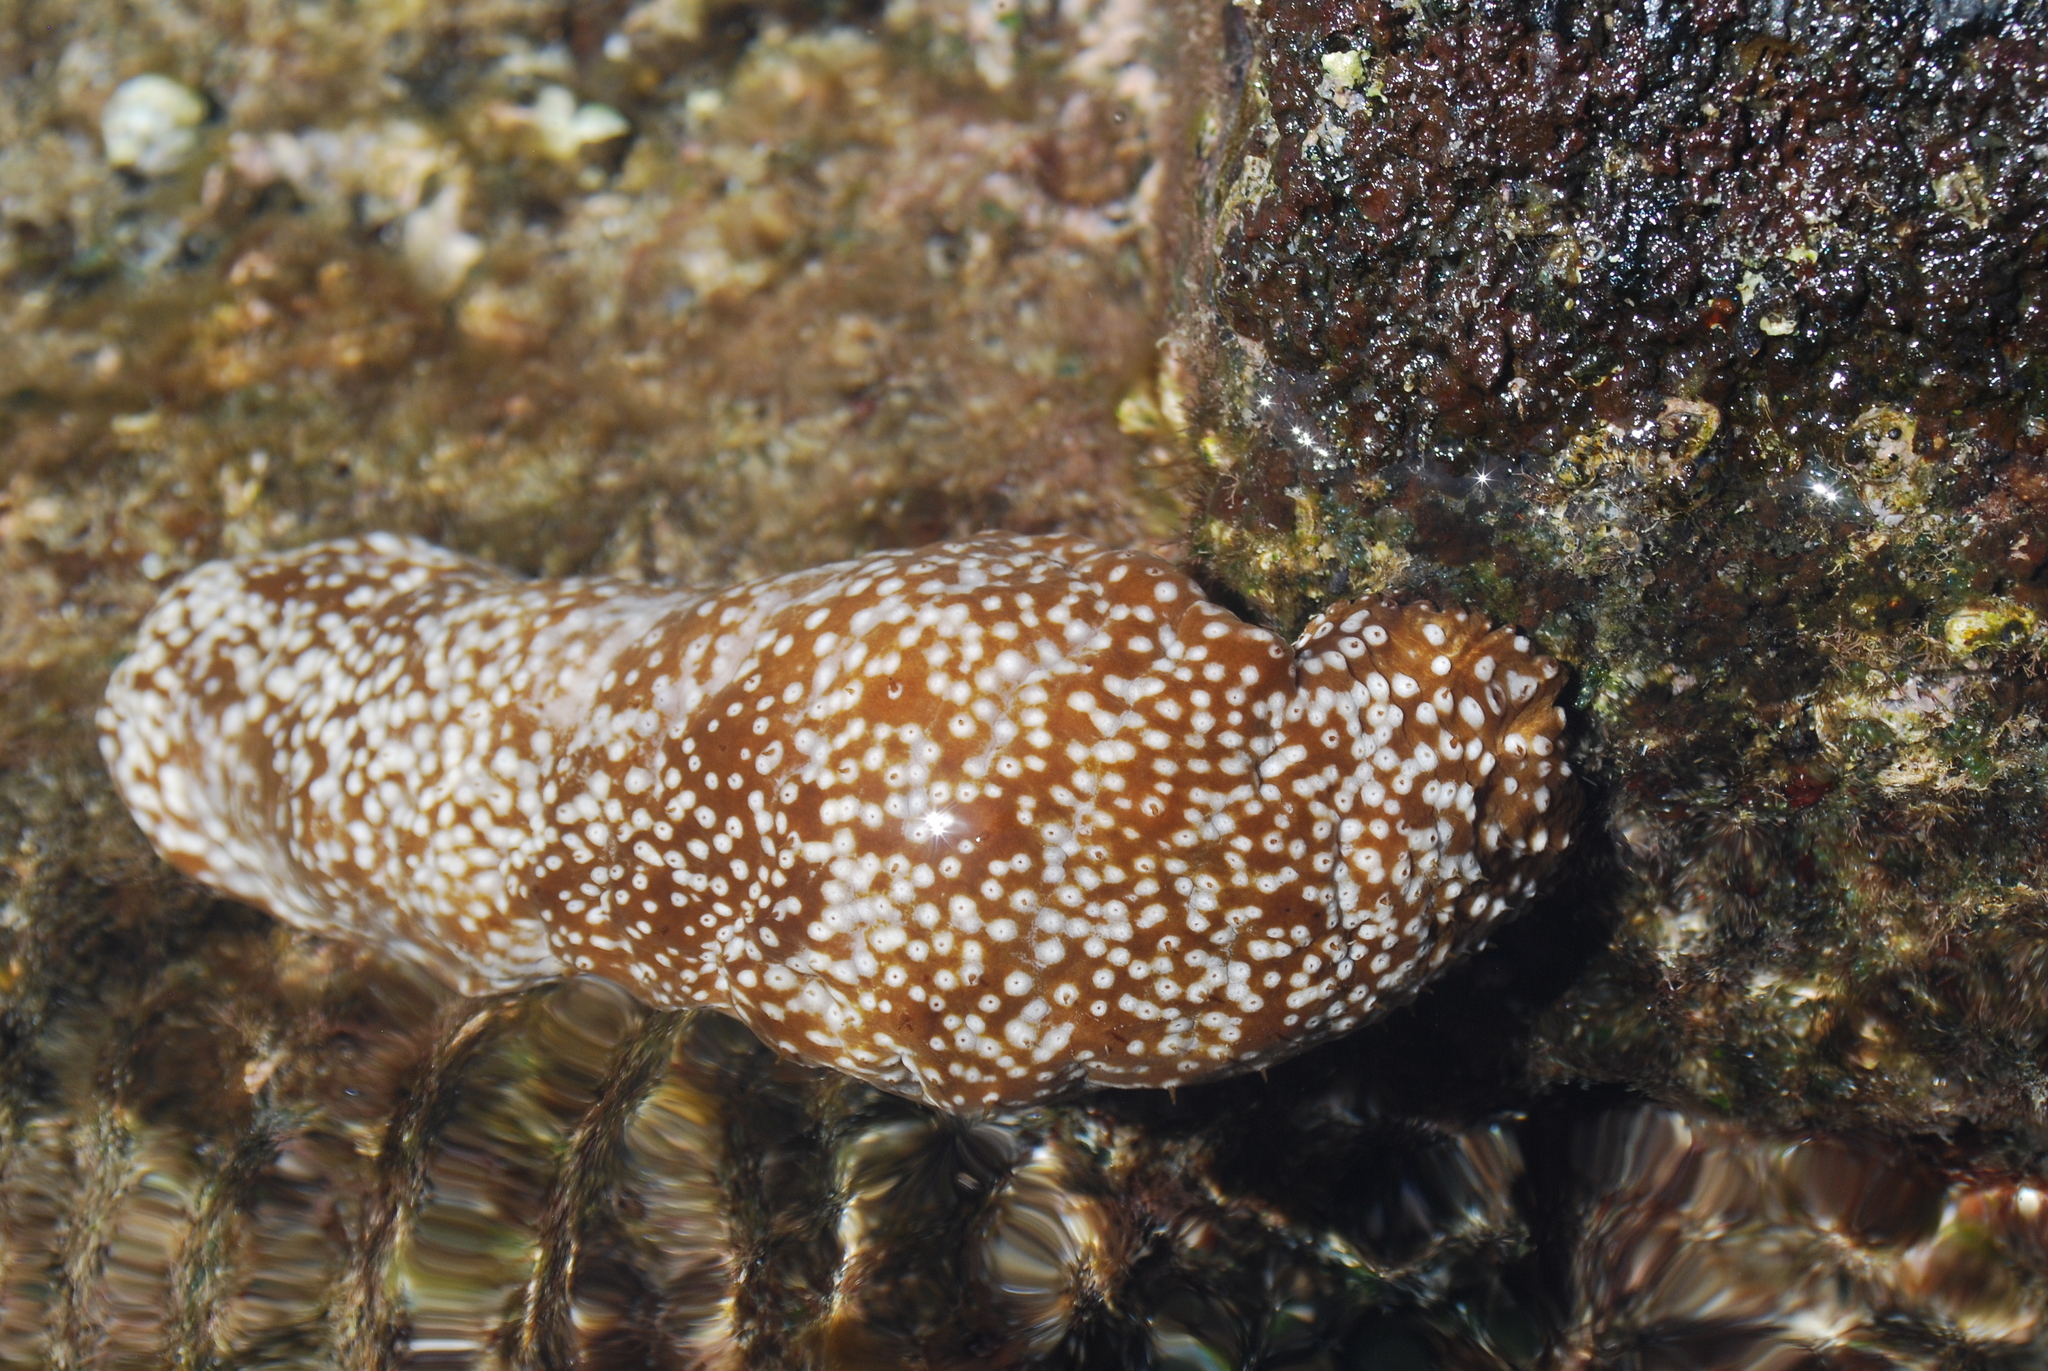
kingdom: Animalia
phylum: Echinodermata
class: Holothuroidea
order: Holothuriida
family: Holothuriidae
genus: Actinopyga
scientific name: Actinopyga varians
